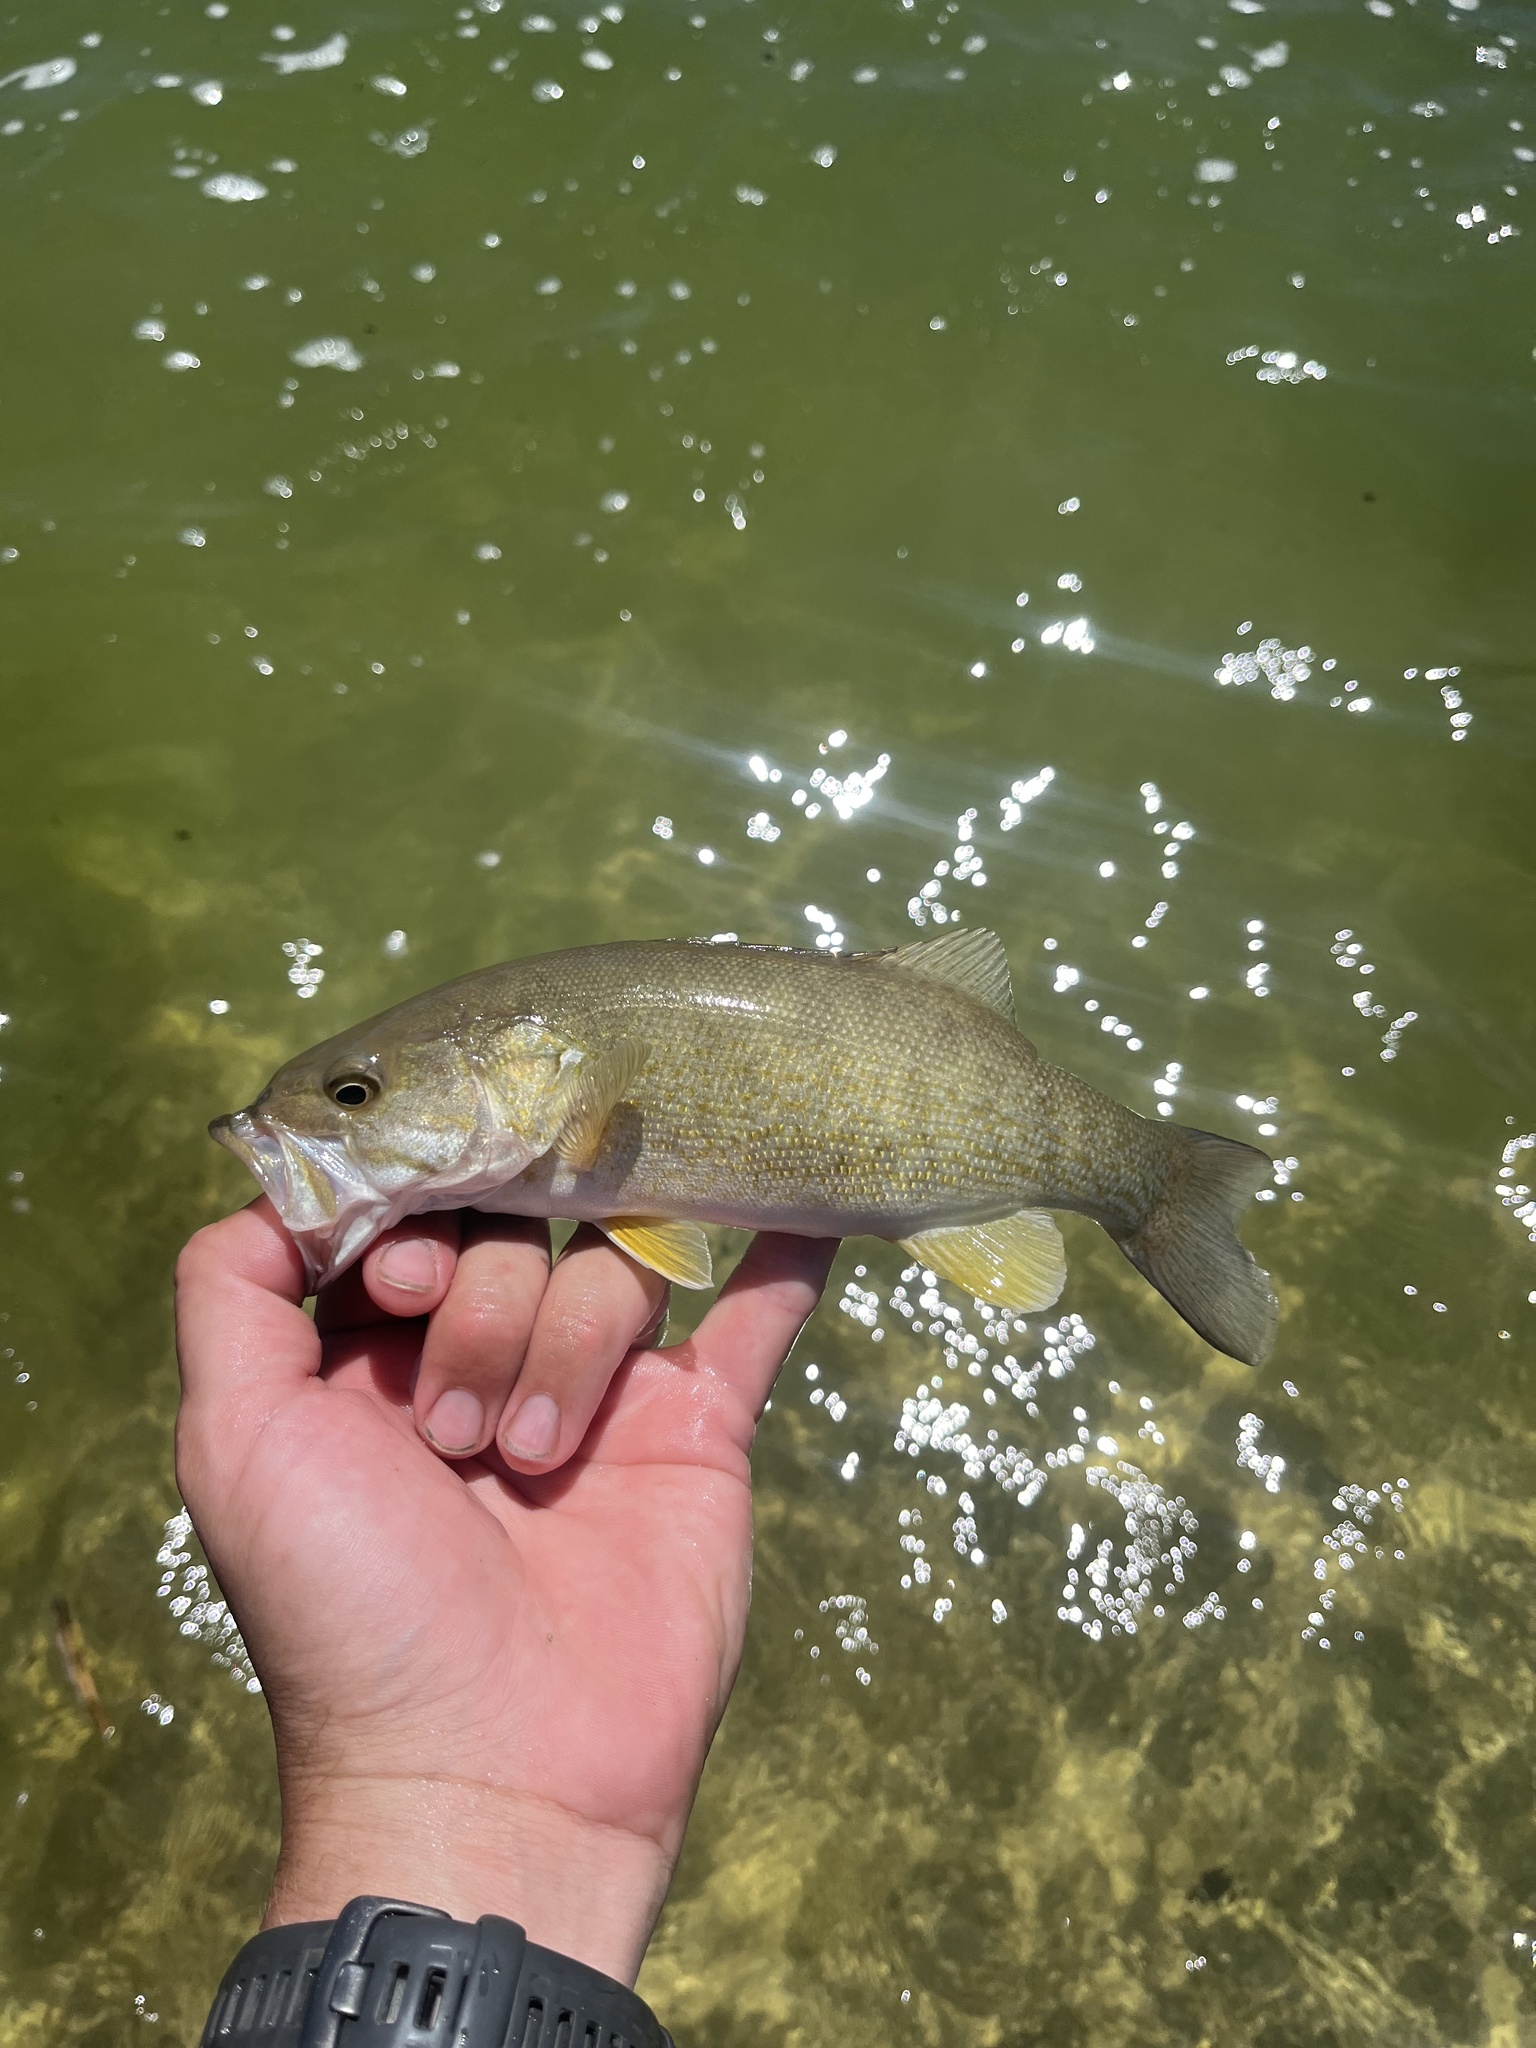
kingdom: Animalia
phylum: Chordata
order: Perciformes
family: Centrarchidae
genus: Micropterus
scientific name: Micropterus dolomieu
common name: Smallmouth bass
